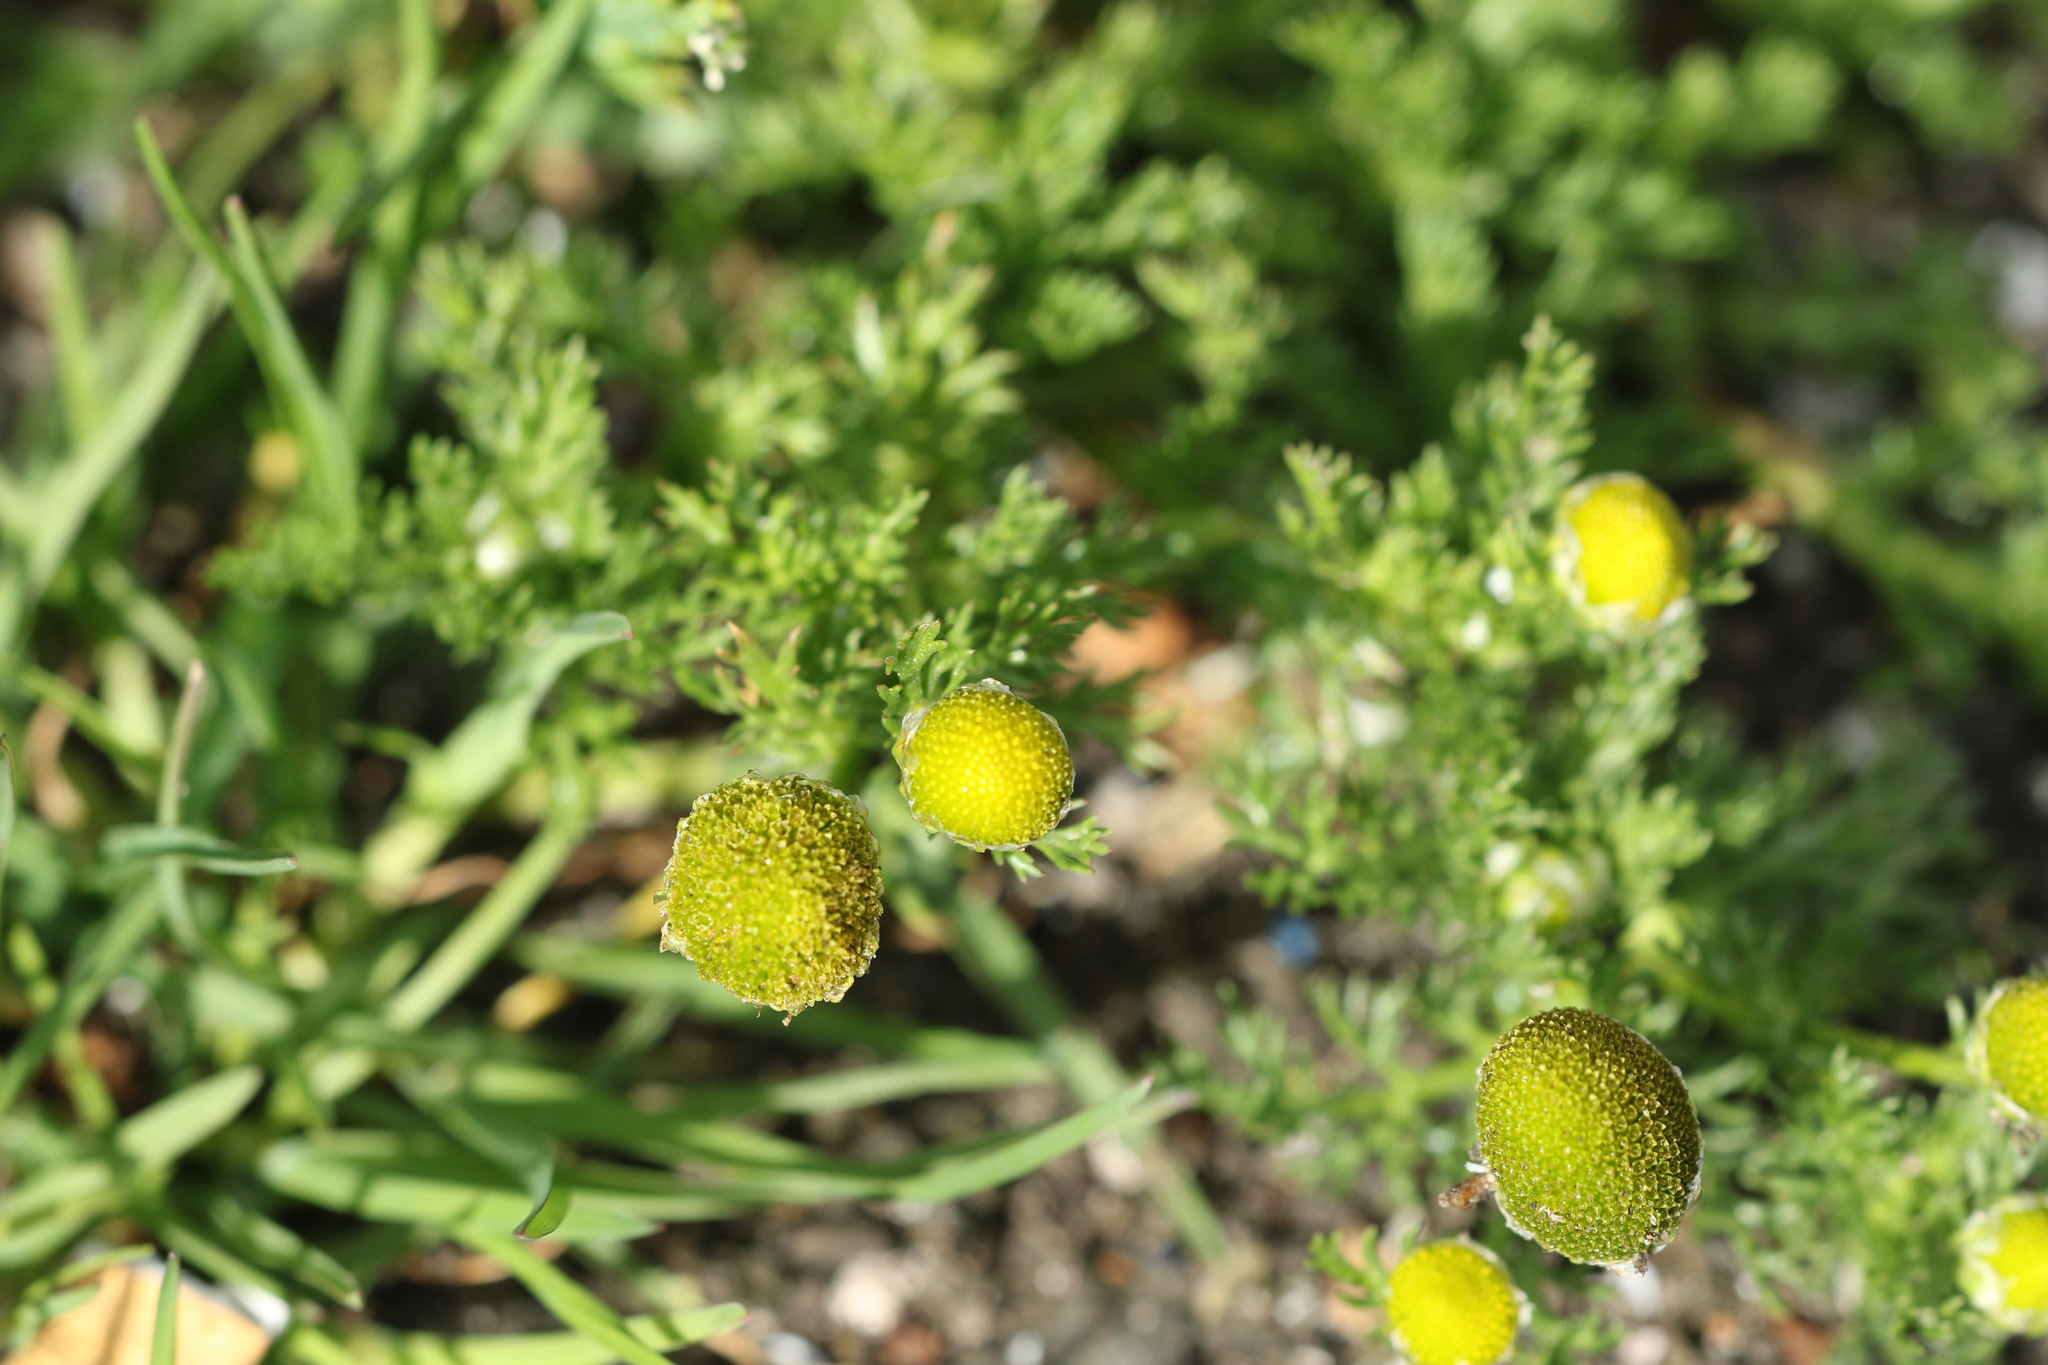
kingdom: Plantae
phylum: Tracheophyta
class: Magnoliopsida
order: Asterales
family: Asteraceae
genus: Matricaria
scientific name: Matricaria discoidea
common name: Disc mayweed
